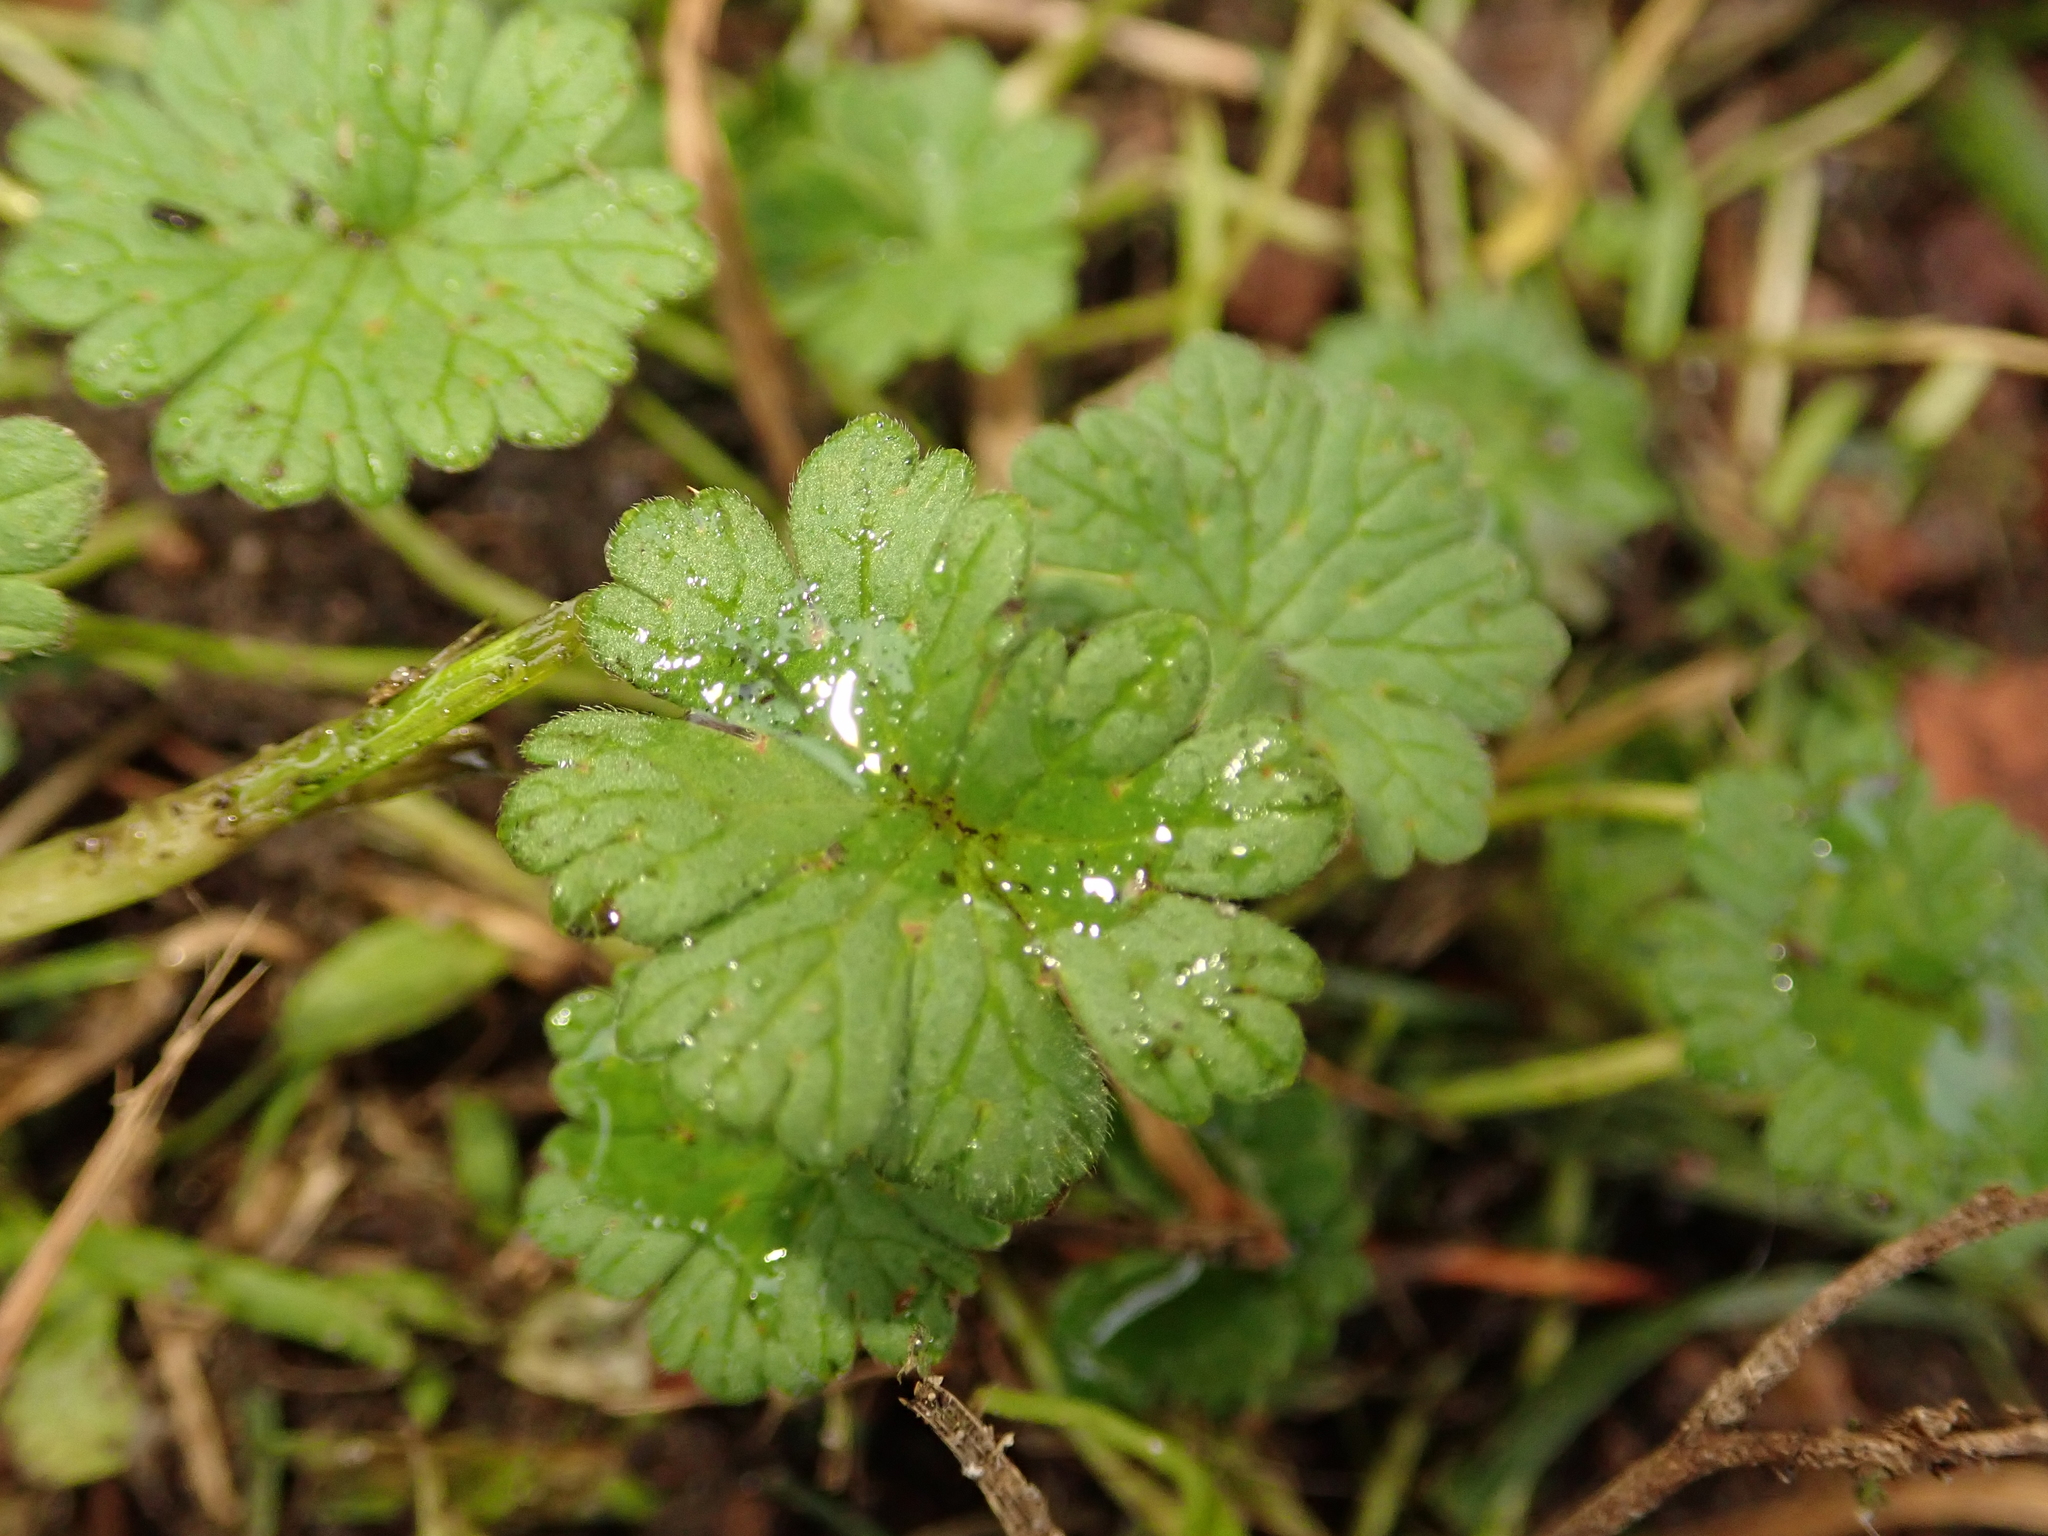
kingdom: Plantae
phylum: Tracheophyta
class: Magnoliopsida
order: Geraniales
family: Geraniaceae
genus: Geranium
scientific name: Geranium molle
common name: Dove's-foot crane's-bill
